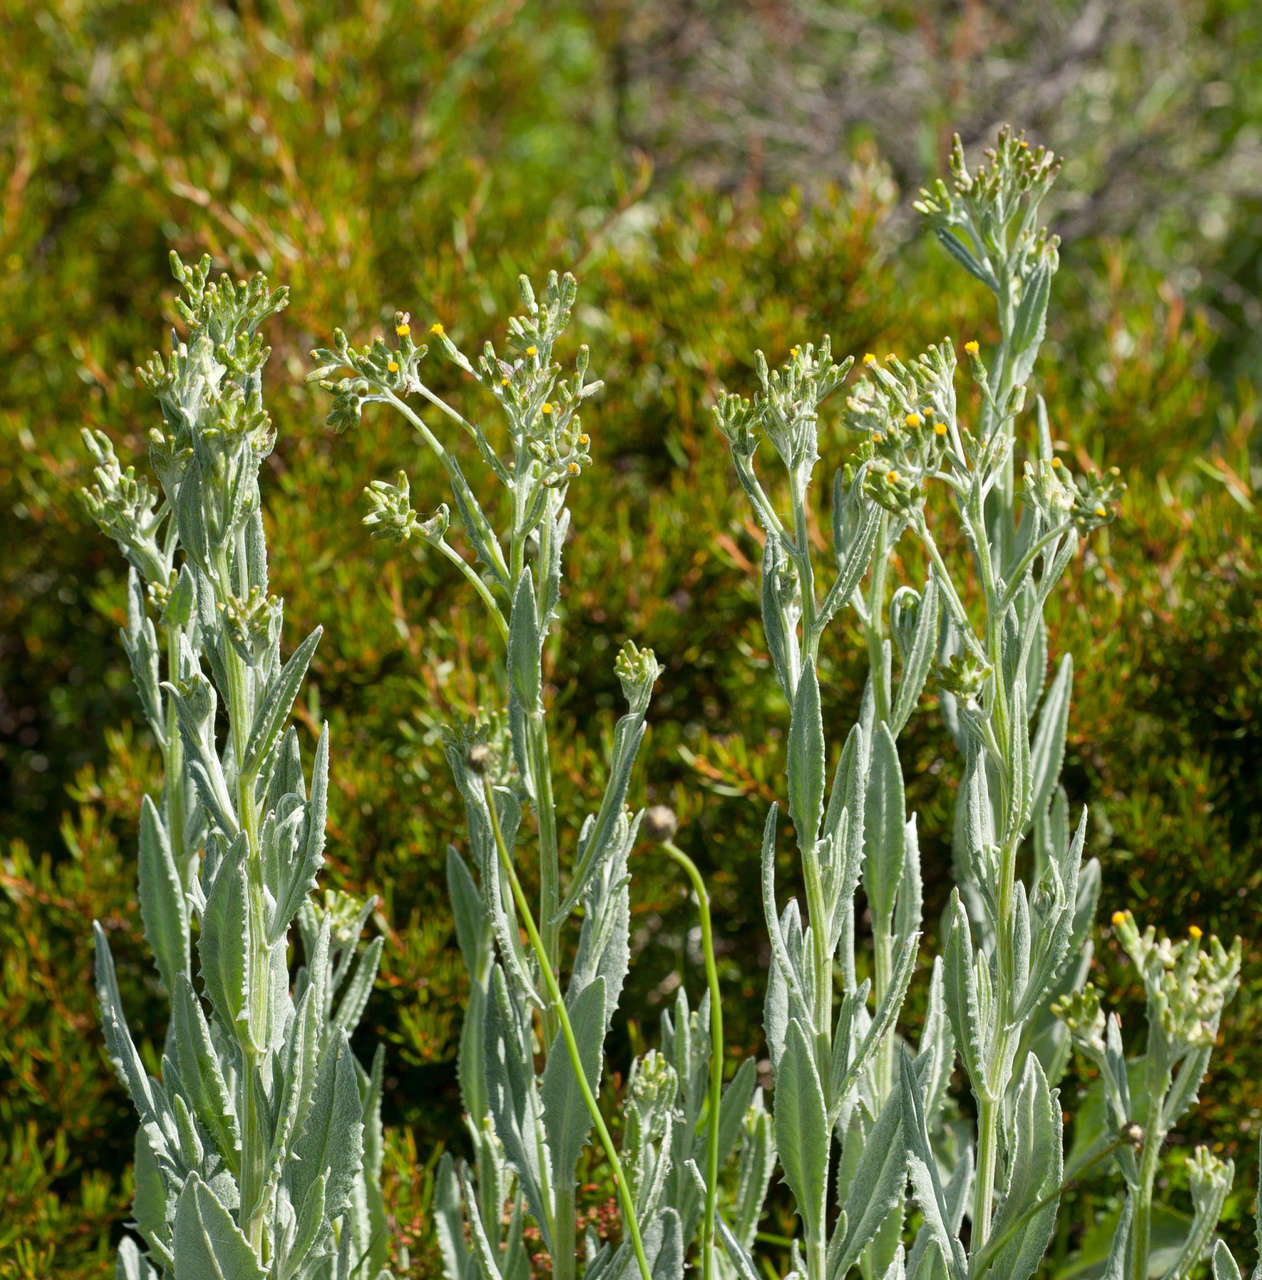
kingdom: Plantae
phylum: Tracheophyta
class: Magnoliopsida
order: Asterales
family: Asteraceae
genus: Senecio
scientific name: Senecio gunnii
